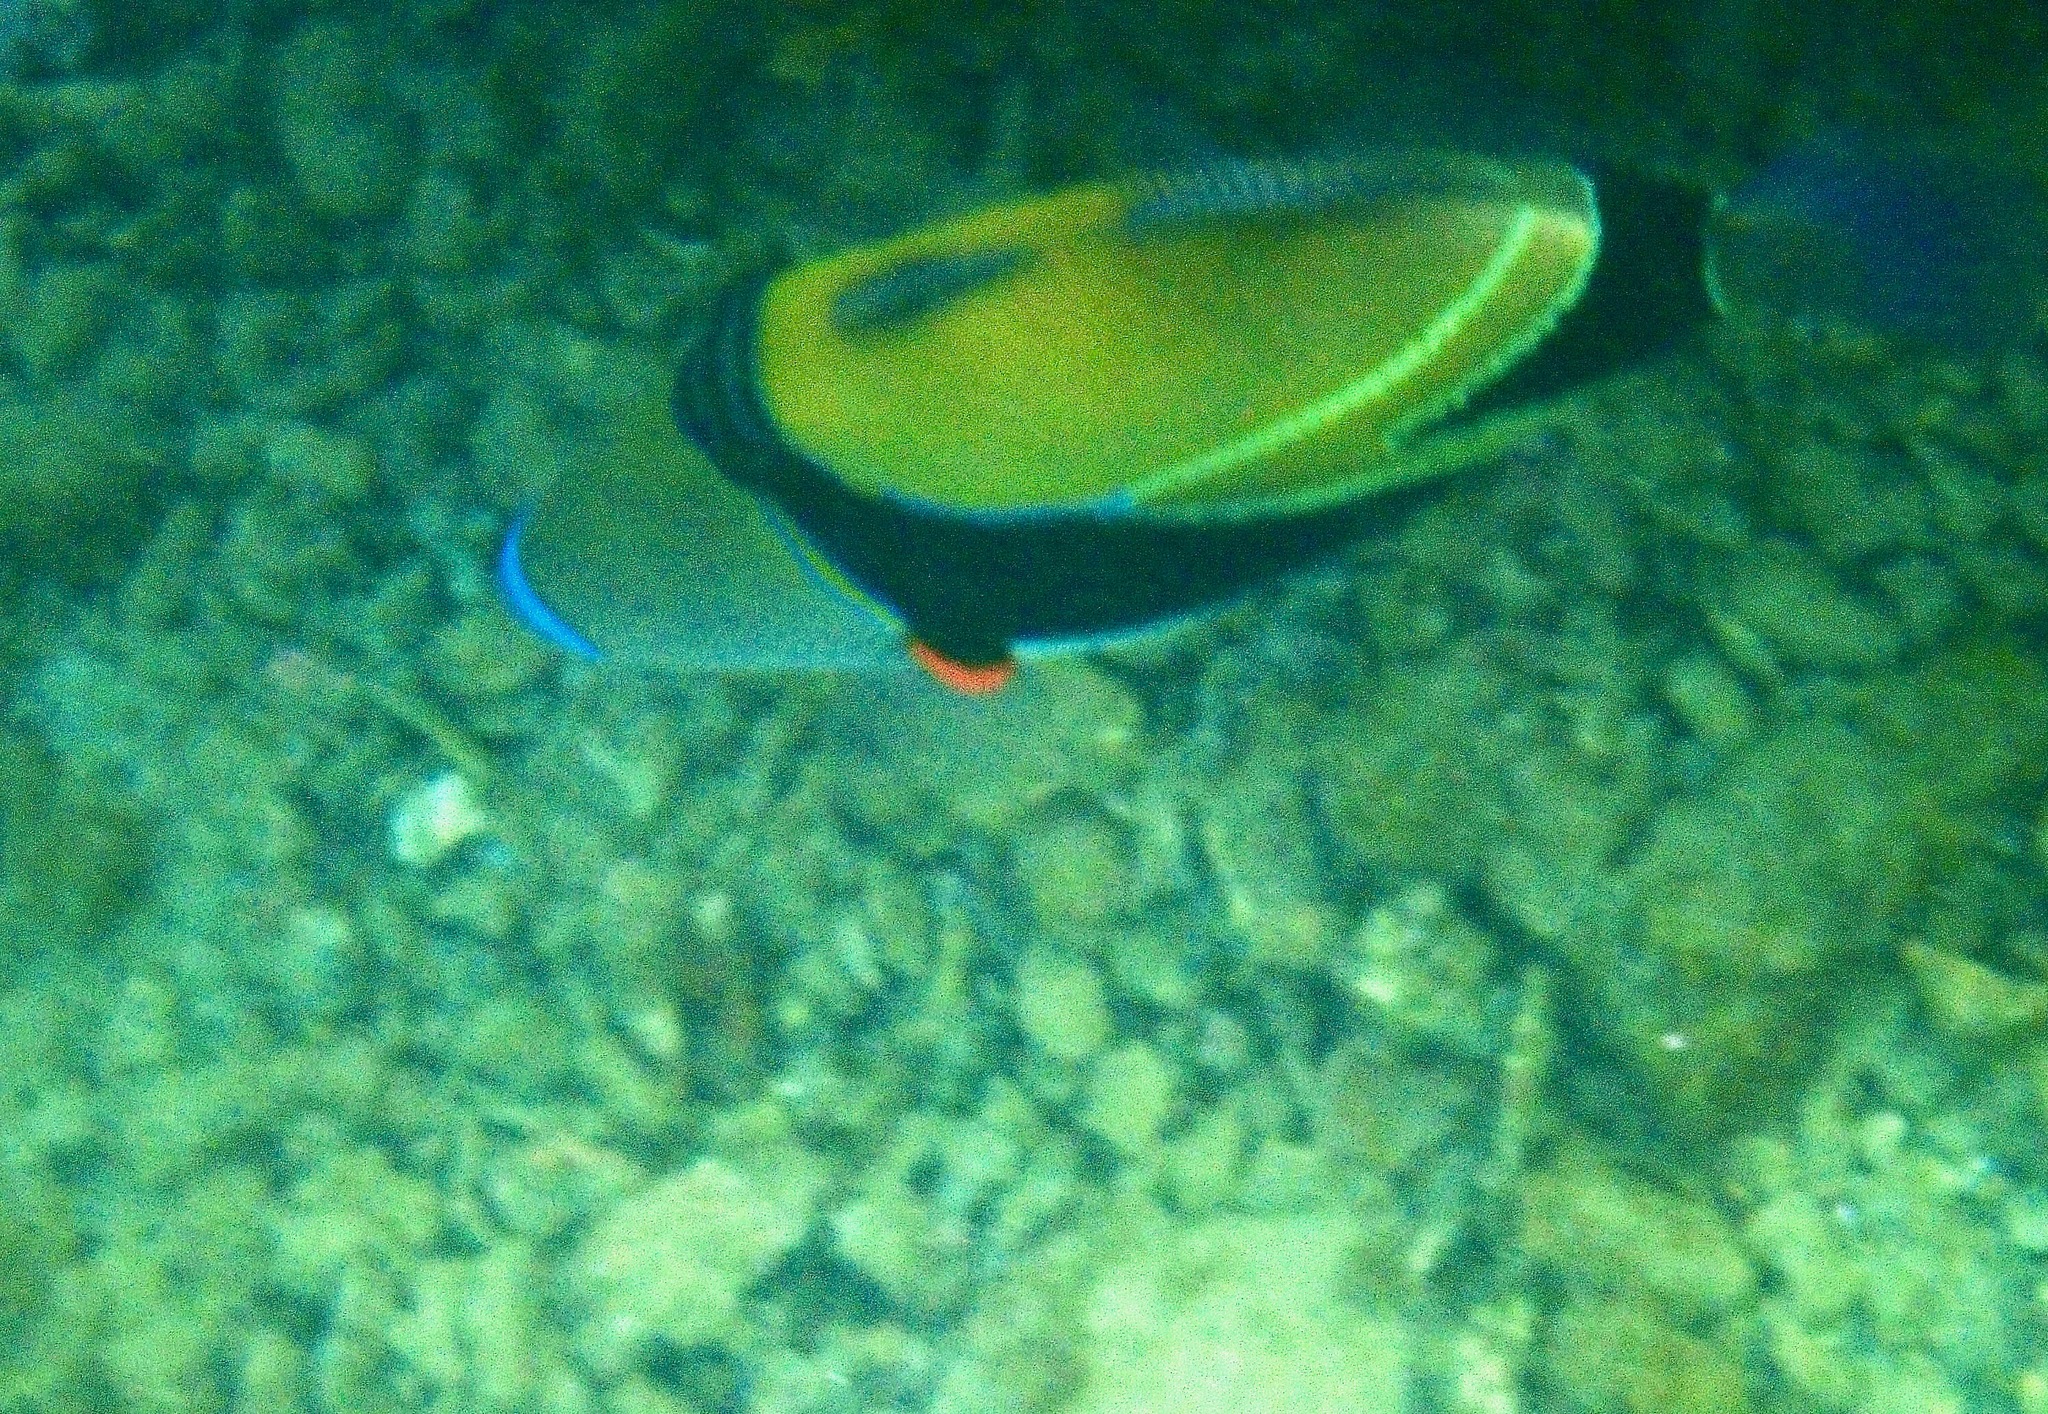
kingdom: Animalia
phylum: Chordata
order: Tetraodontiformes
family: Balistidae
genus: Rhinecanthus
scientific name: Rhinecanthus rectangulus
